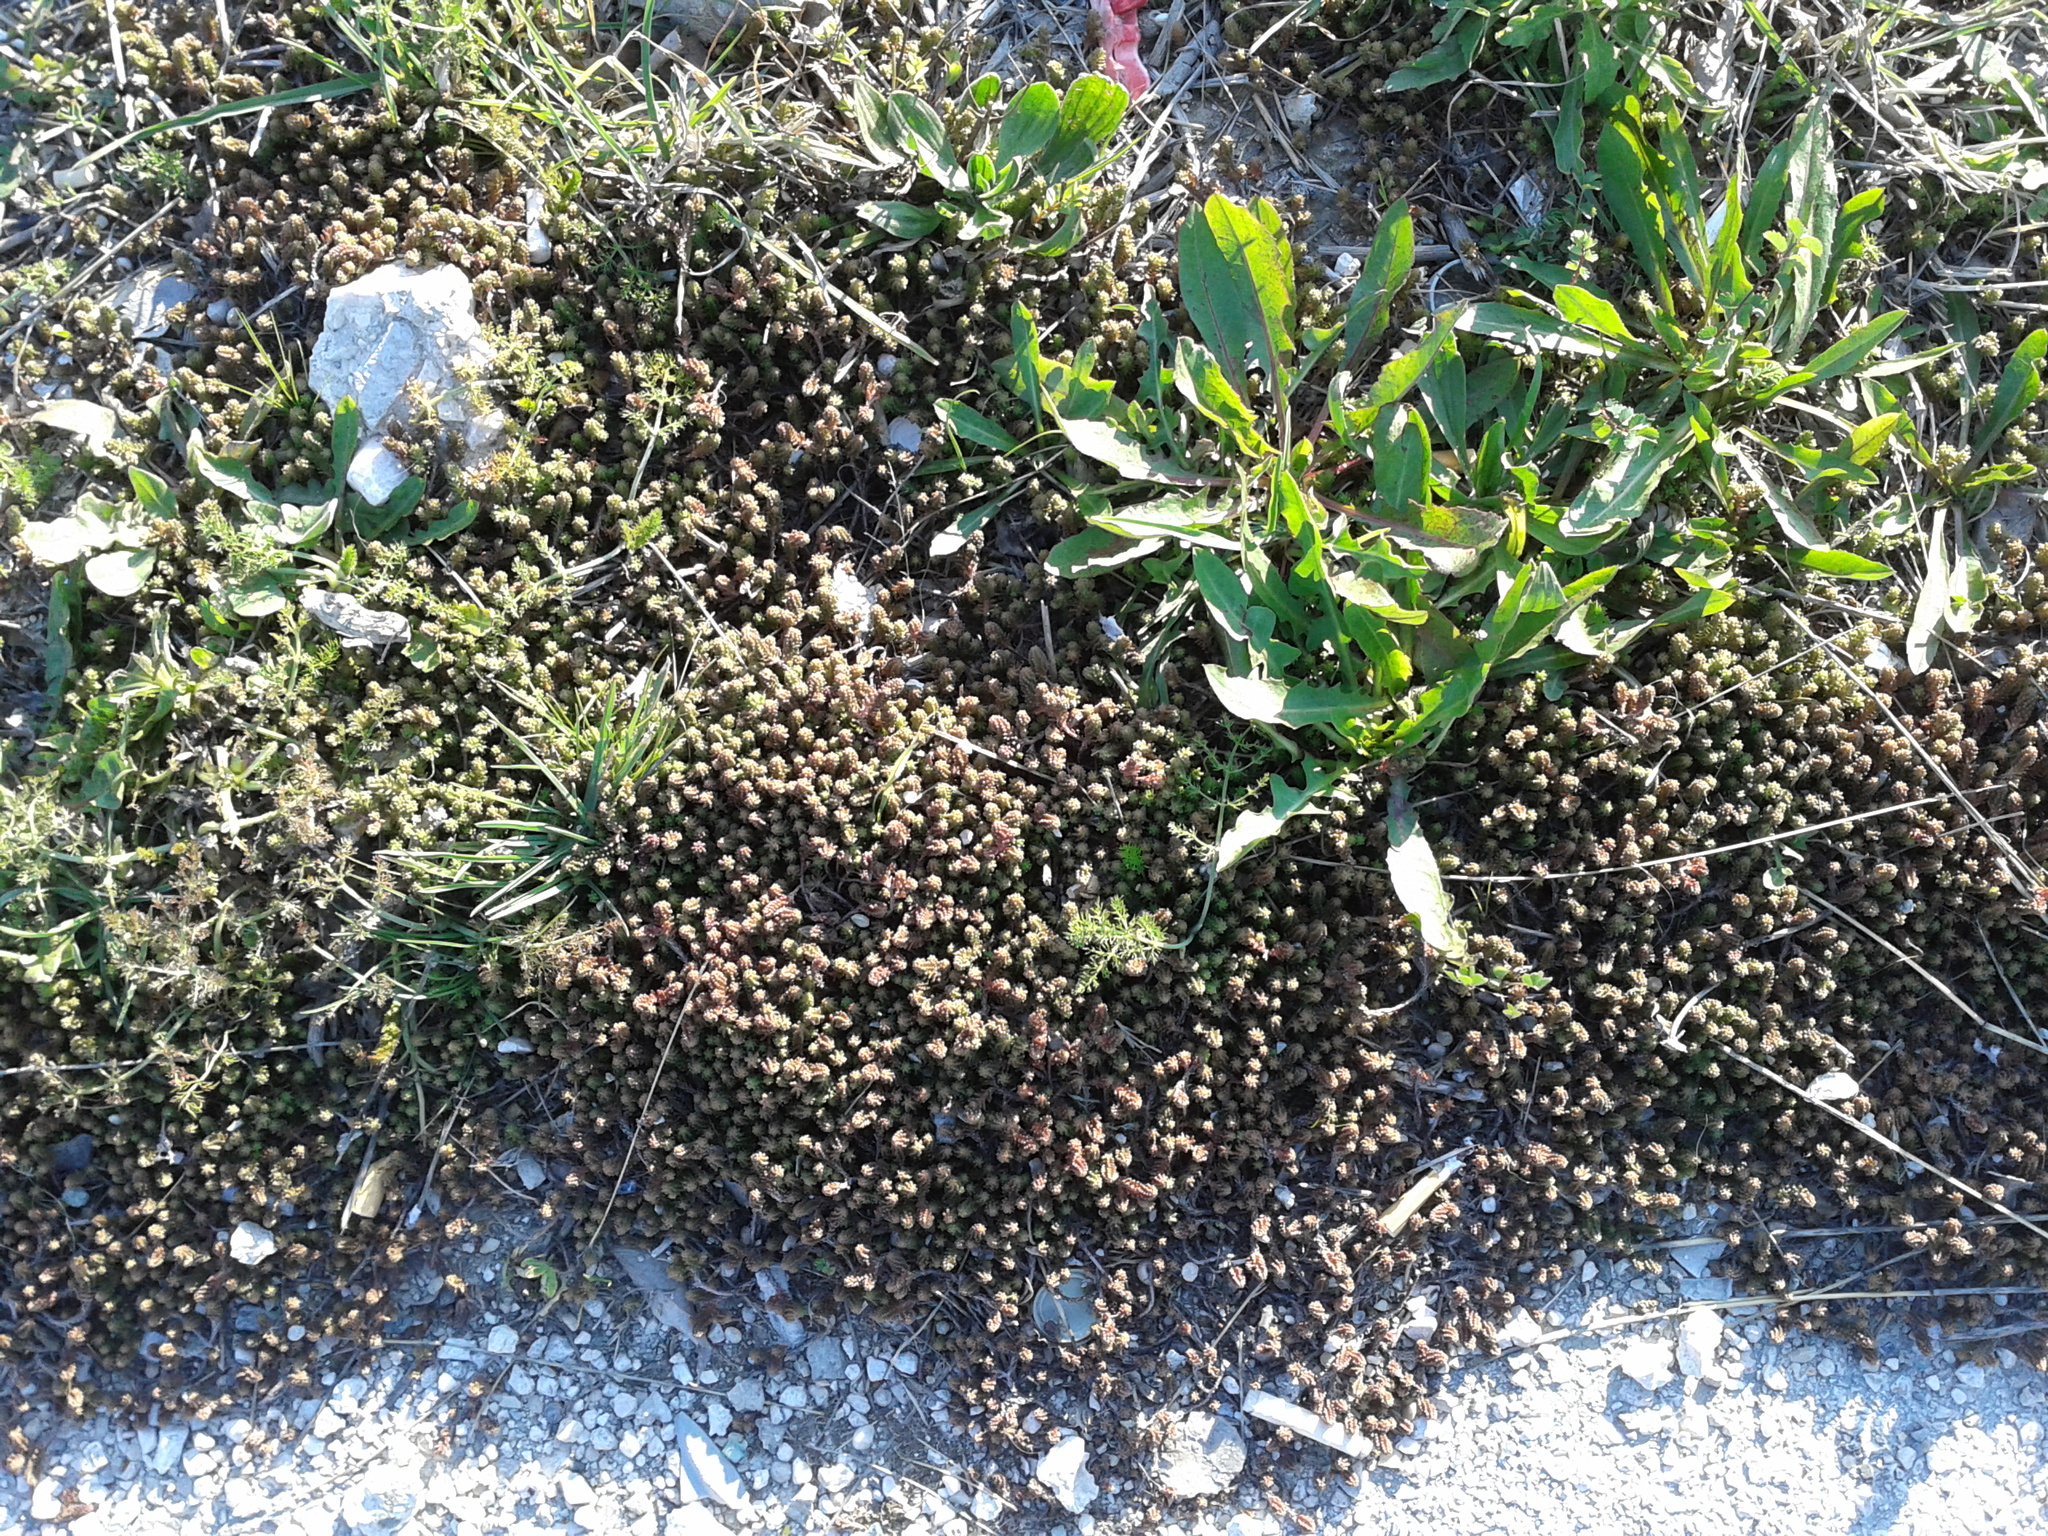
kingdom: Plantae
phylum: Tracheophyta
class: Magnoliopsida
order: Saxifragales
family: Crassulaceae
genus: Sedum
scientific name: Sedum sexangulare
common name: Tasteless stonecrop
